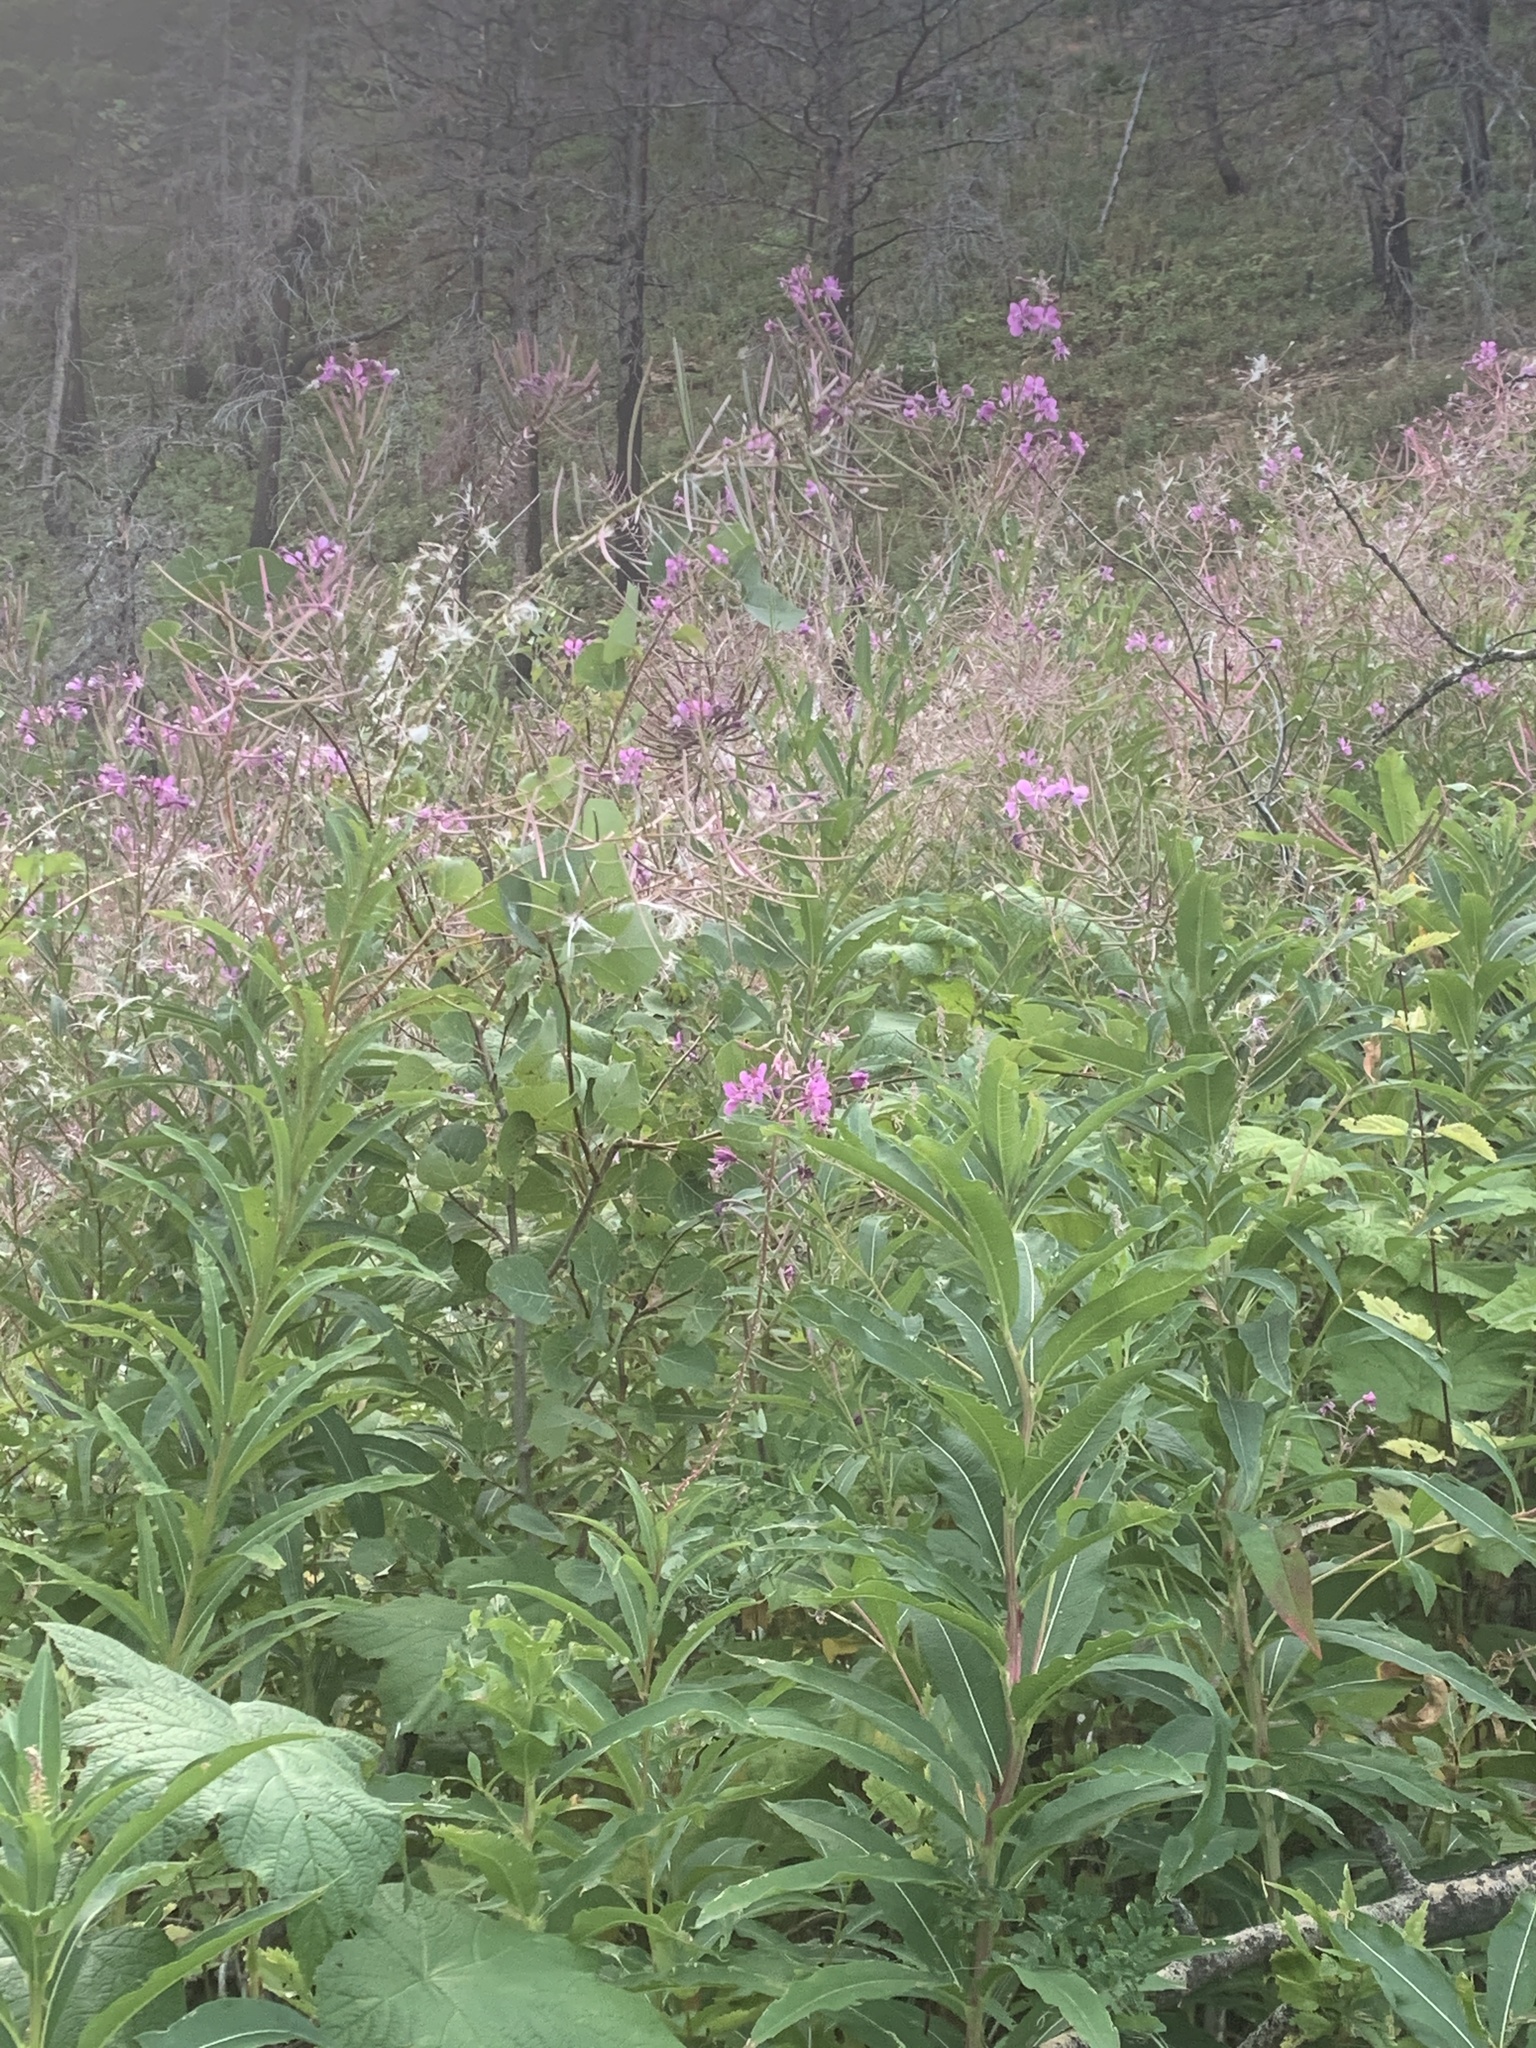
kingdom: Plantae
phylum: Tracheophyta
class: Magnoliopsida
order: Myrtales
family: Onagraceae
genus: Chamaenerion
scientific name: Chamaenerion angustifolium
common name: Fireweed
